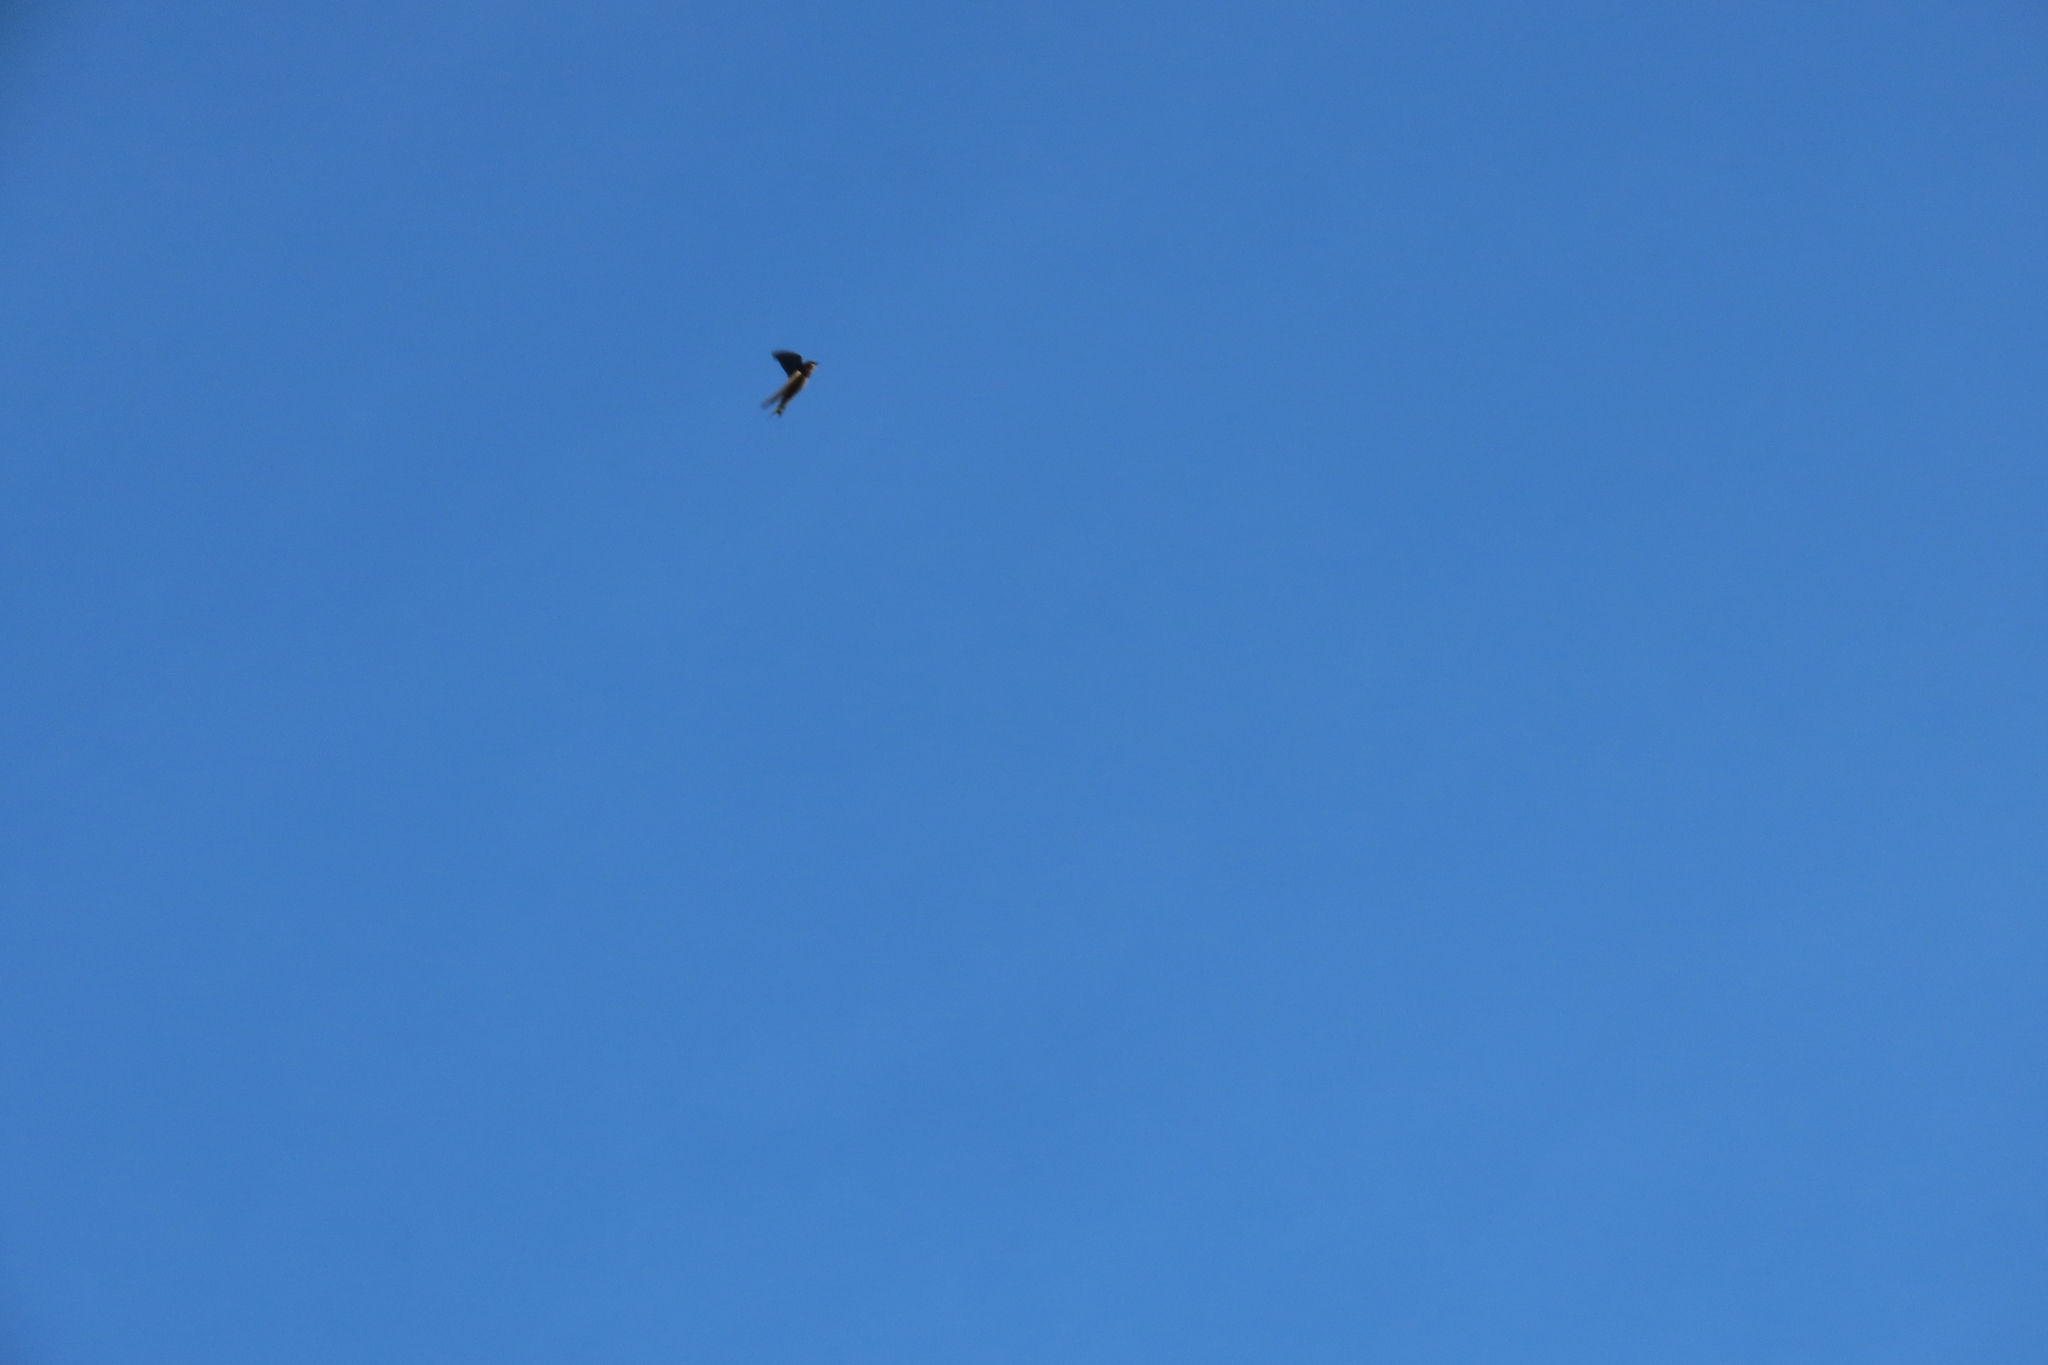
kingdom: Animalia
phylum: Chordata
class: Aves
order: Passeriformes
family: Hirundinidae
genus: Hirundo
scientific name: Hirundo rustica
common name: Barn swallow
